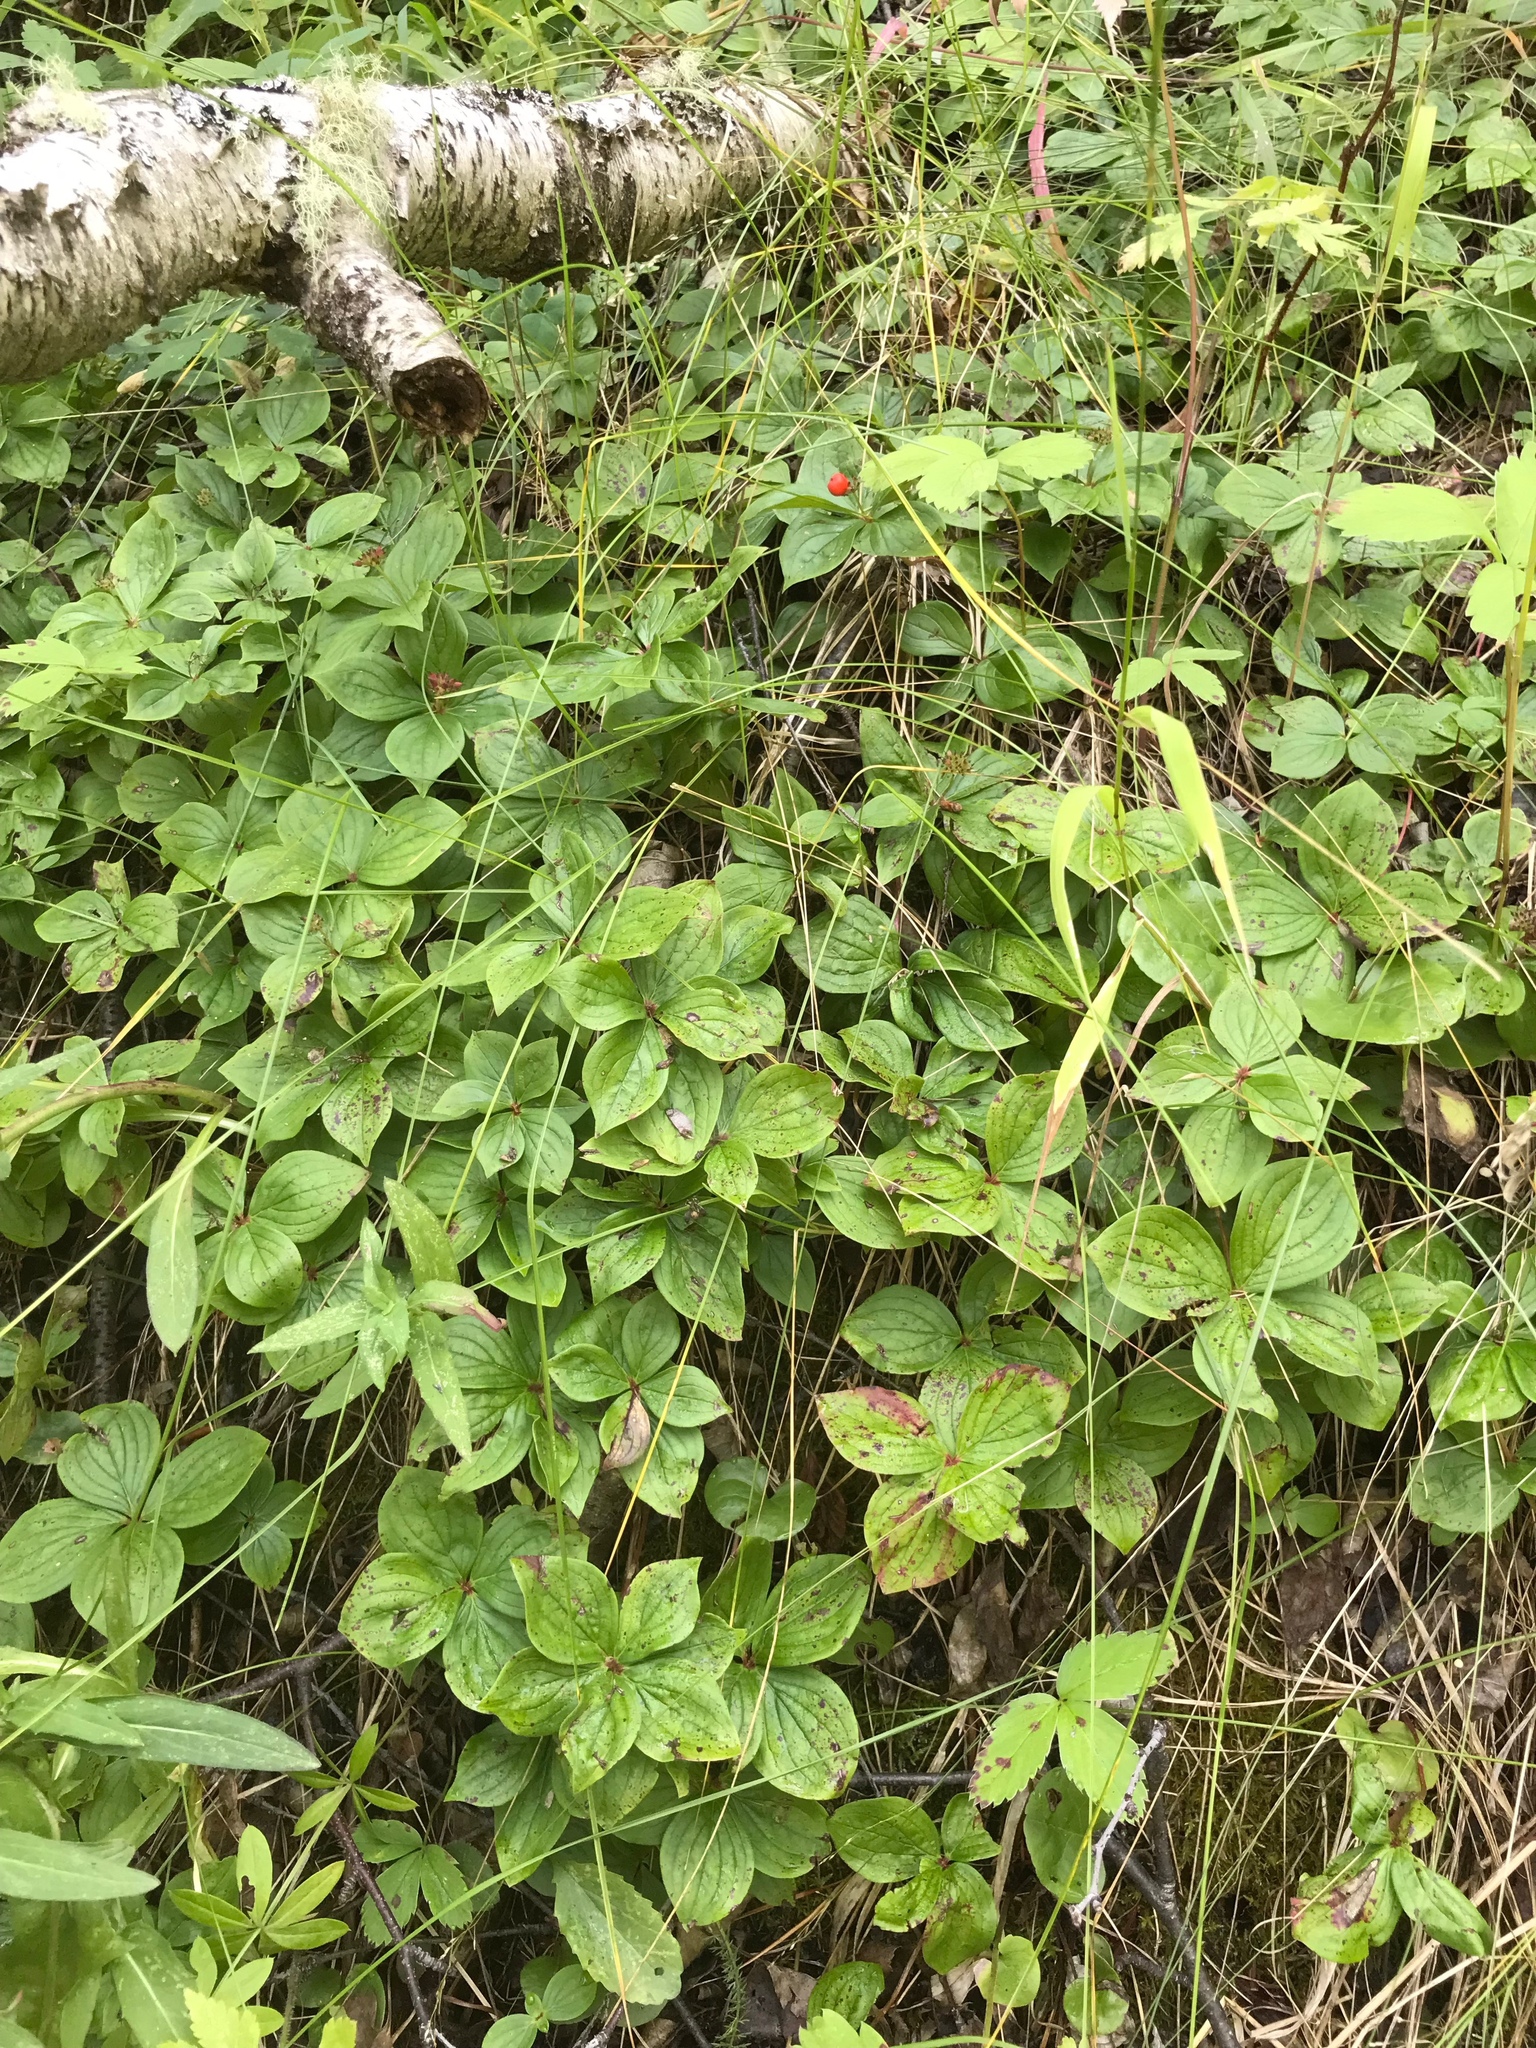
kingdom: Plantae
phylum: Tracheophyta
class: Magnoliopsida
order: Cornales
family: Cornaceae
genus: Cornus
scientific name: Cornus canadensis
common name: Creeping dogwood
